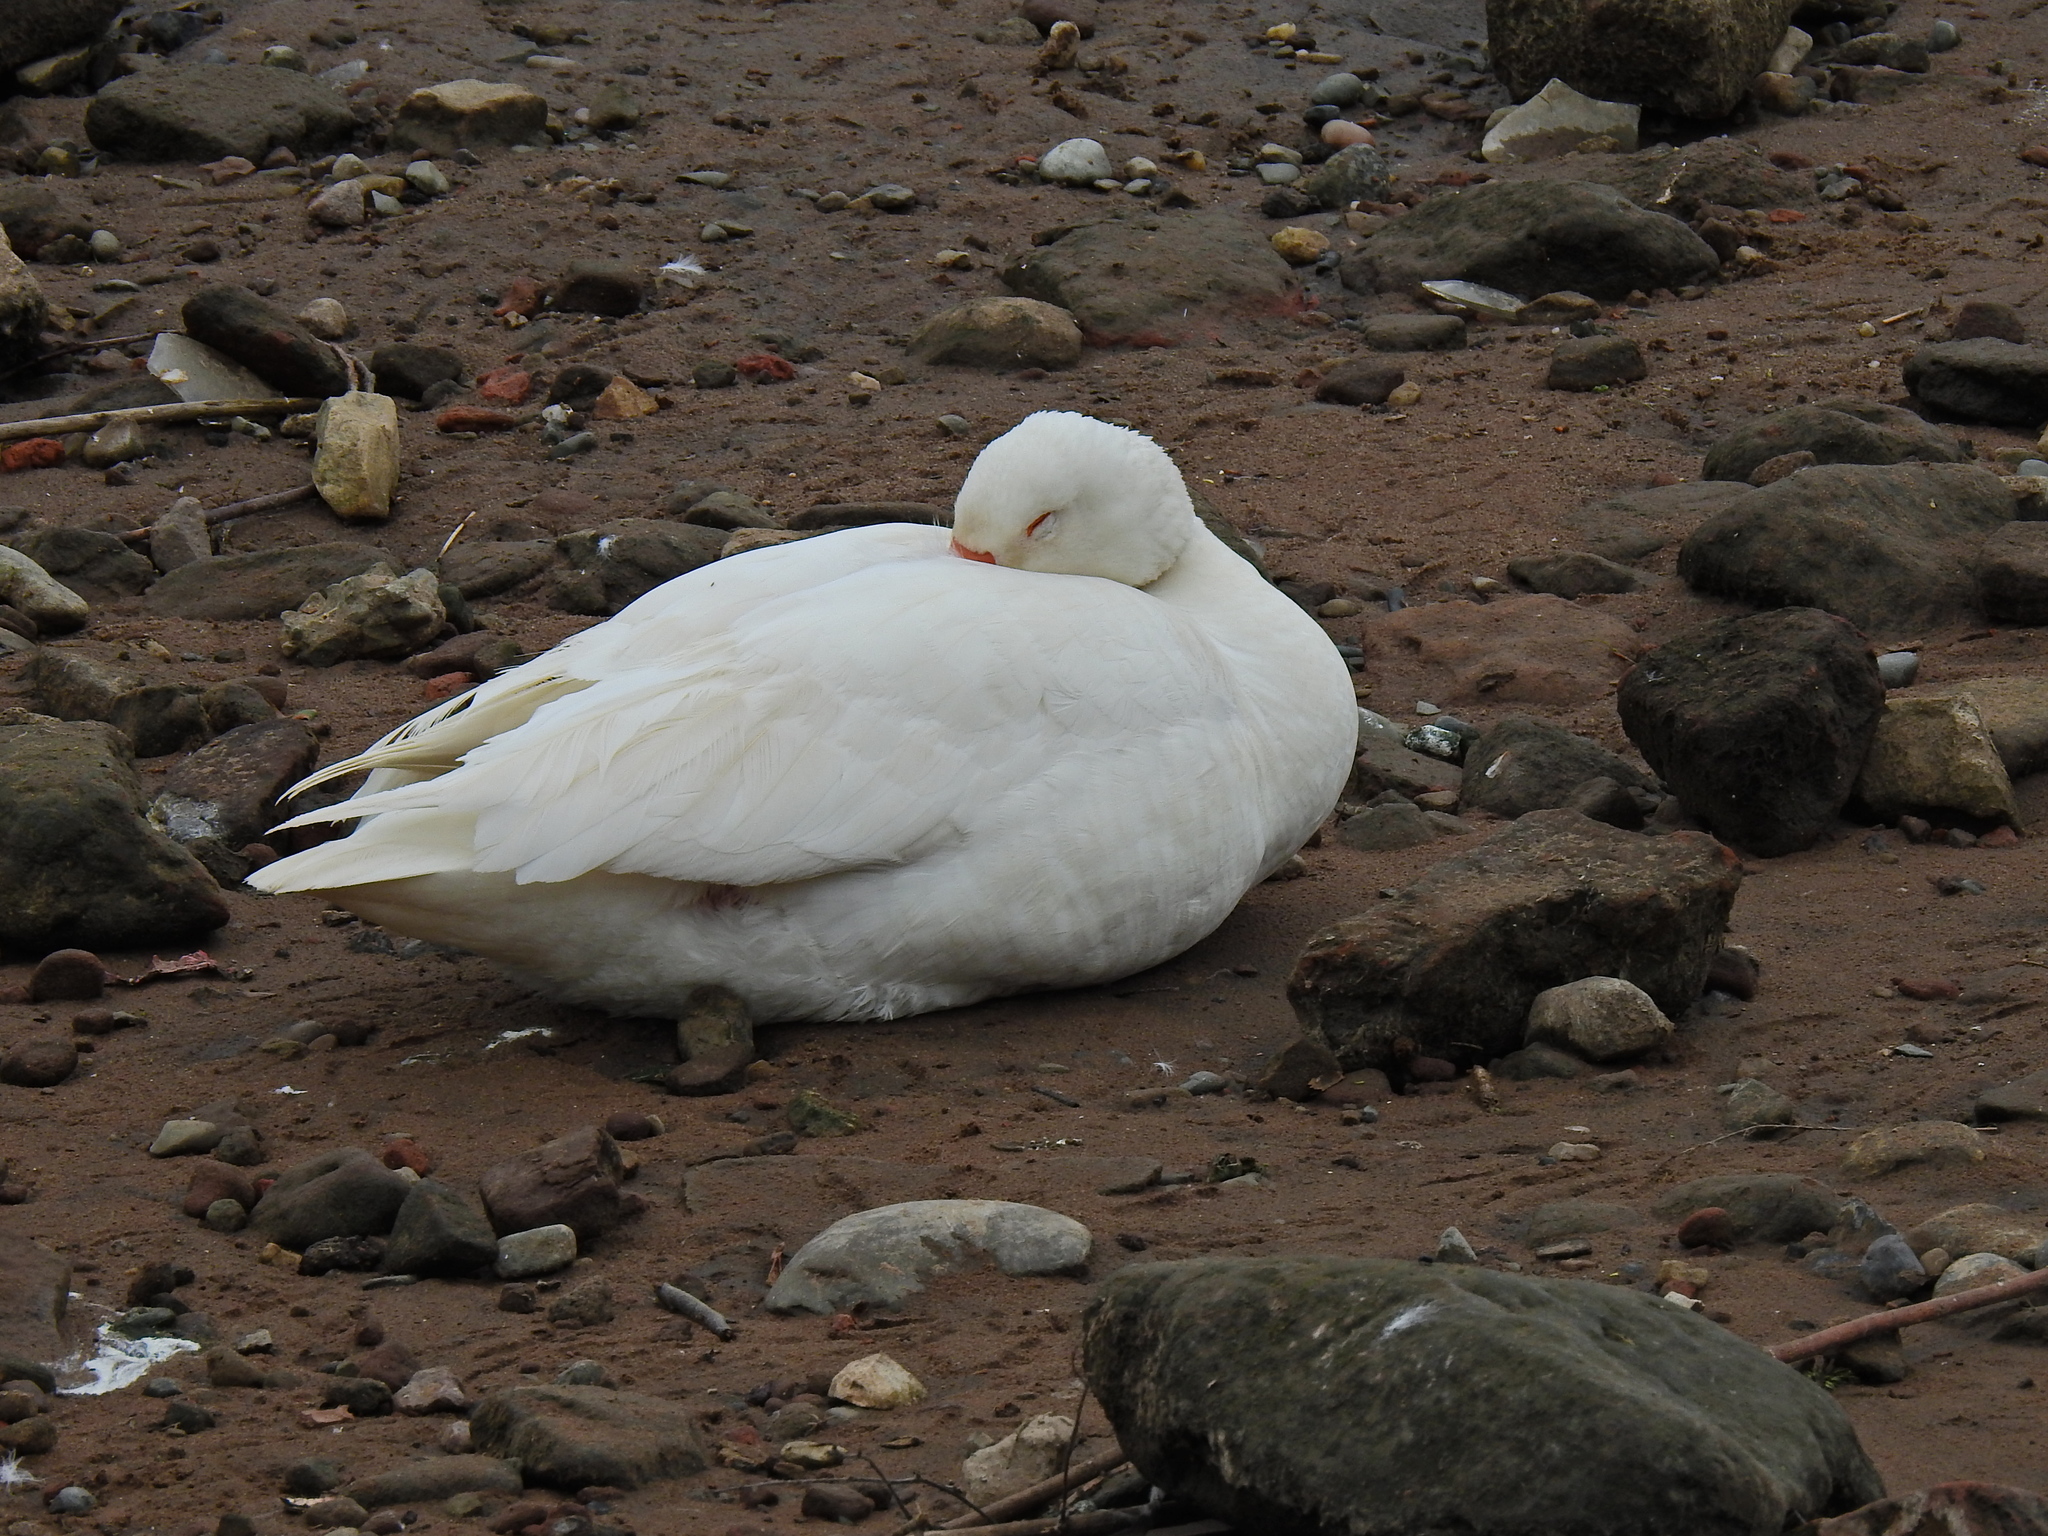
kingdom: Animalia
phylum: Chordata
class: Aves
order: Anseriformes
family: Anatidae
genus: Anser
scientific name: Anser anser
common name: Greylag goose
